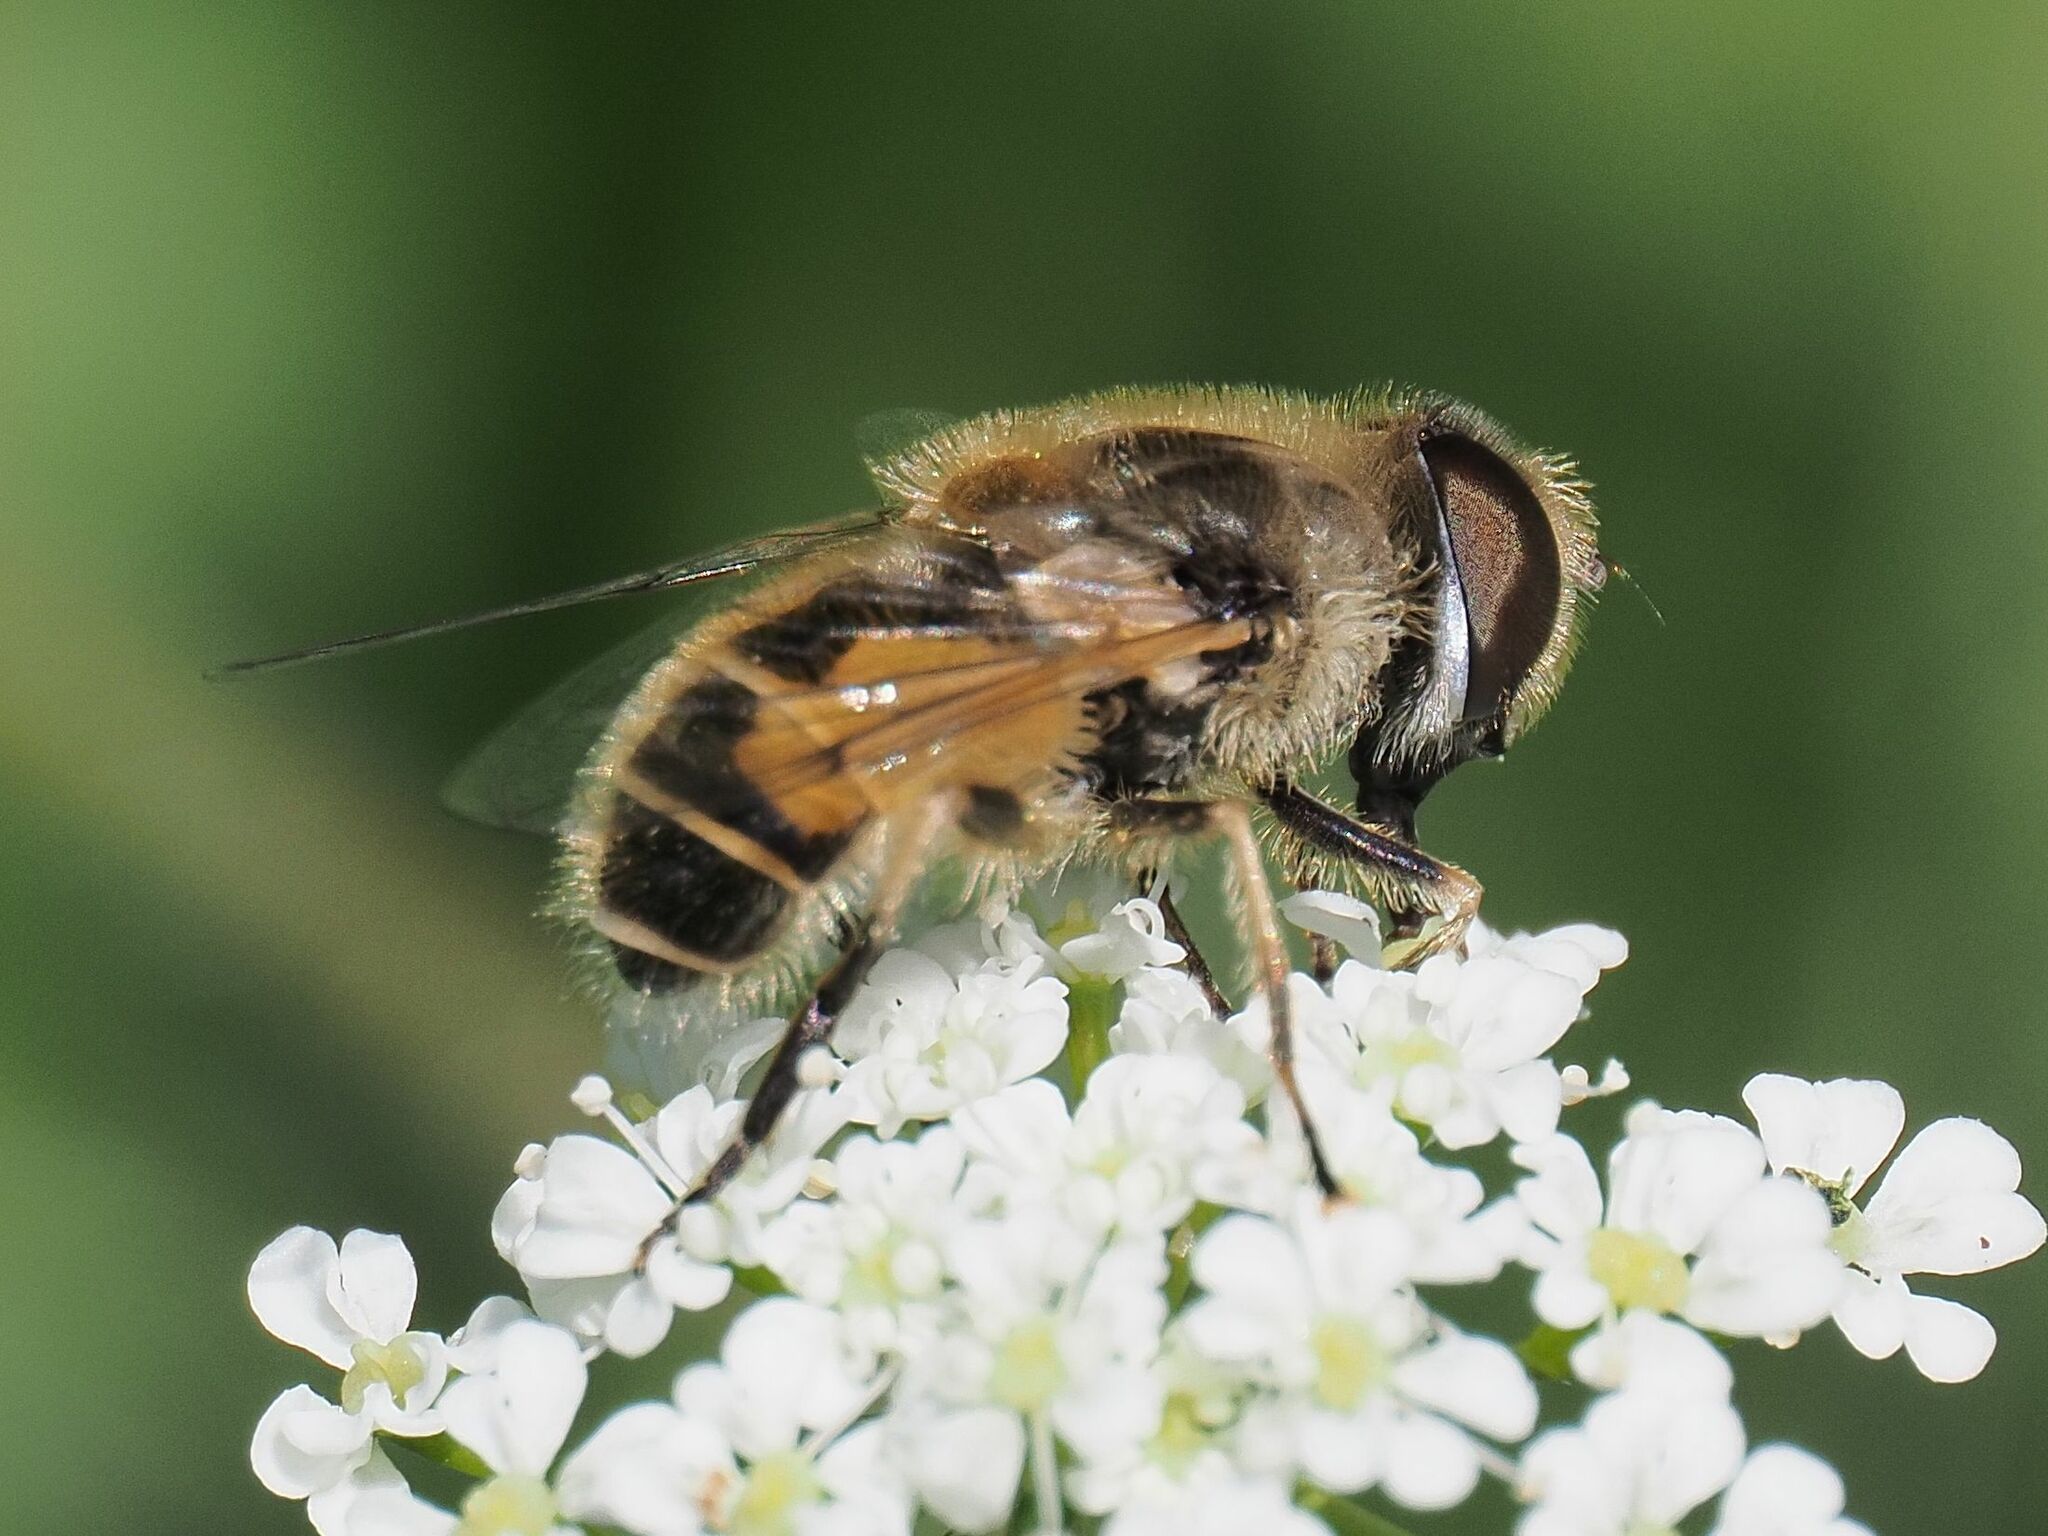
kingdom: Animalia
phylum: Arthropoda
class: Insecta
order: Diptera
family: Syrphidae
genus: Eristalis
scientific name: Eristalis arbustorum
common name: Hover fly
